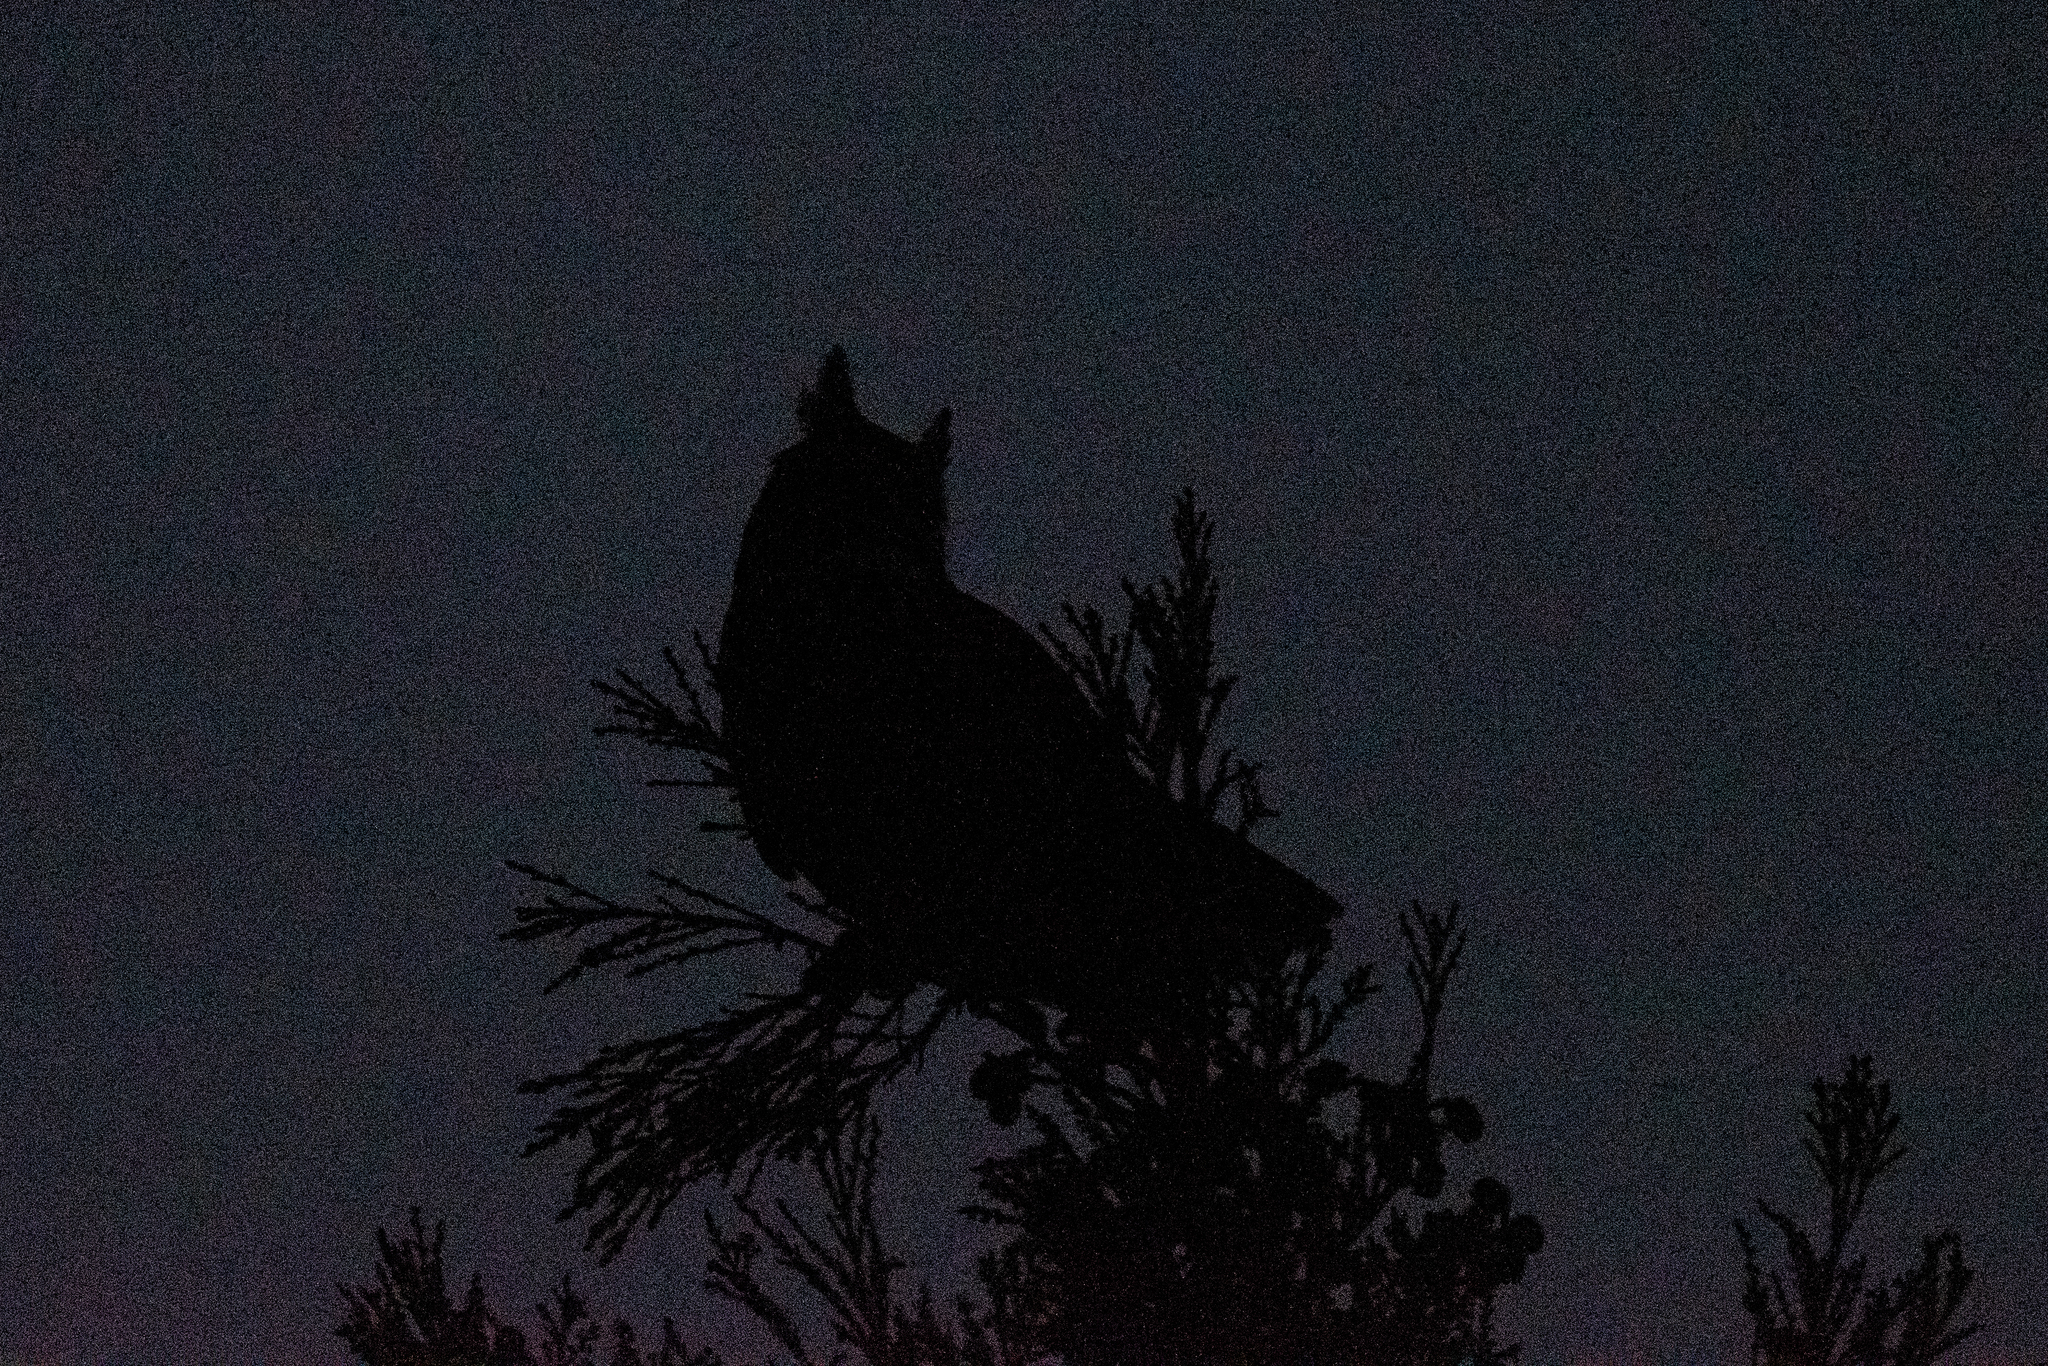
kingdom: Animalia
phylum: Chordata
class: Aves
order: Strigiformes
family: Strigidae
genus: Bubo
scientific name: Bubo virginianus
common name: Great horned owl
